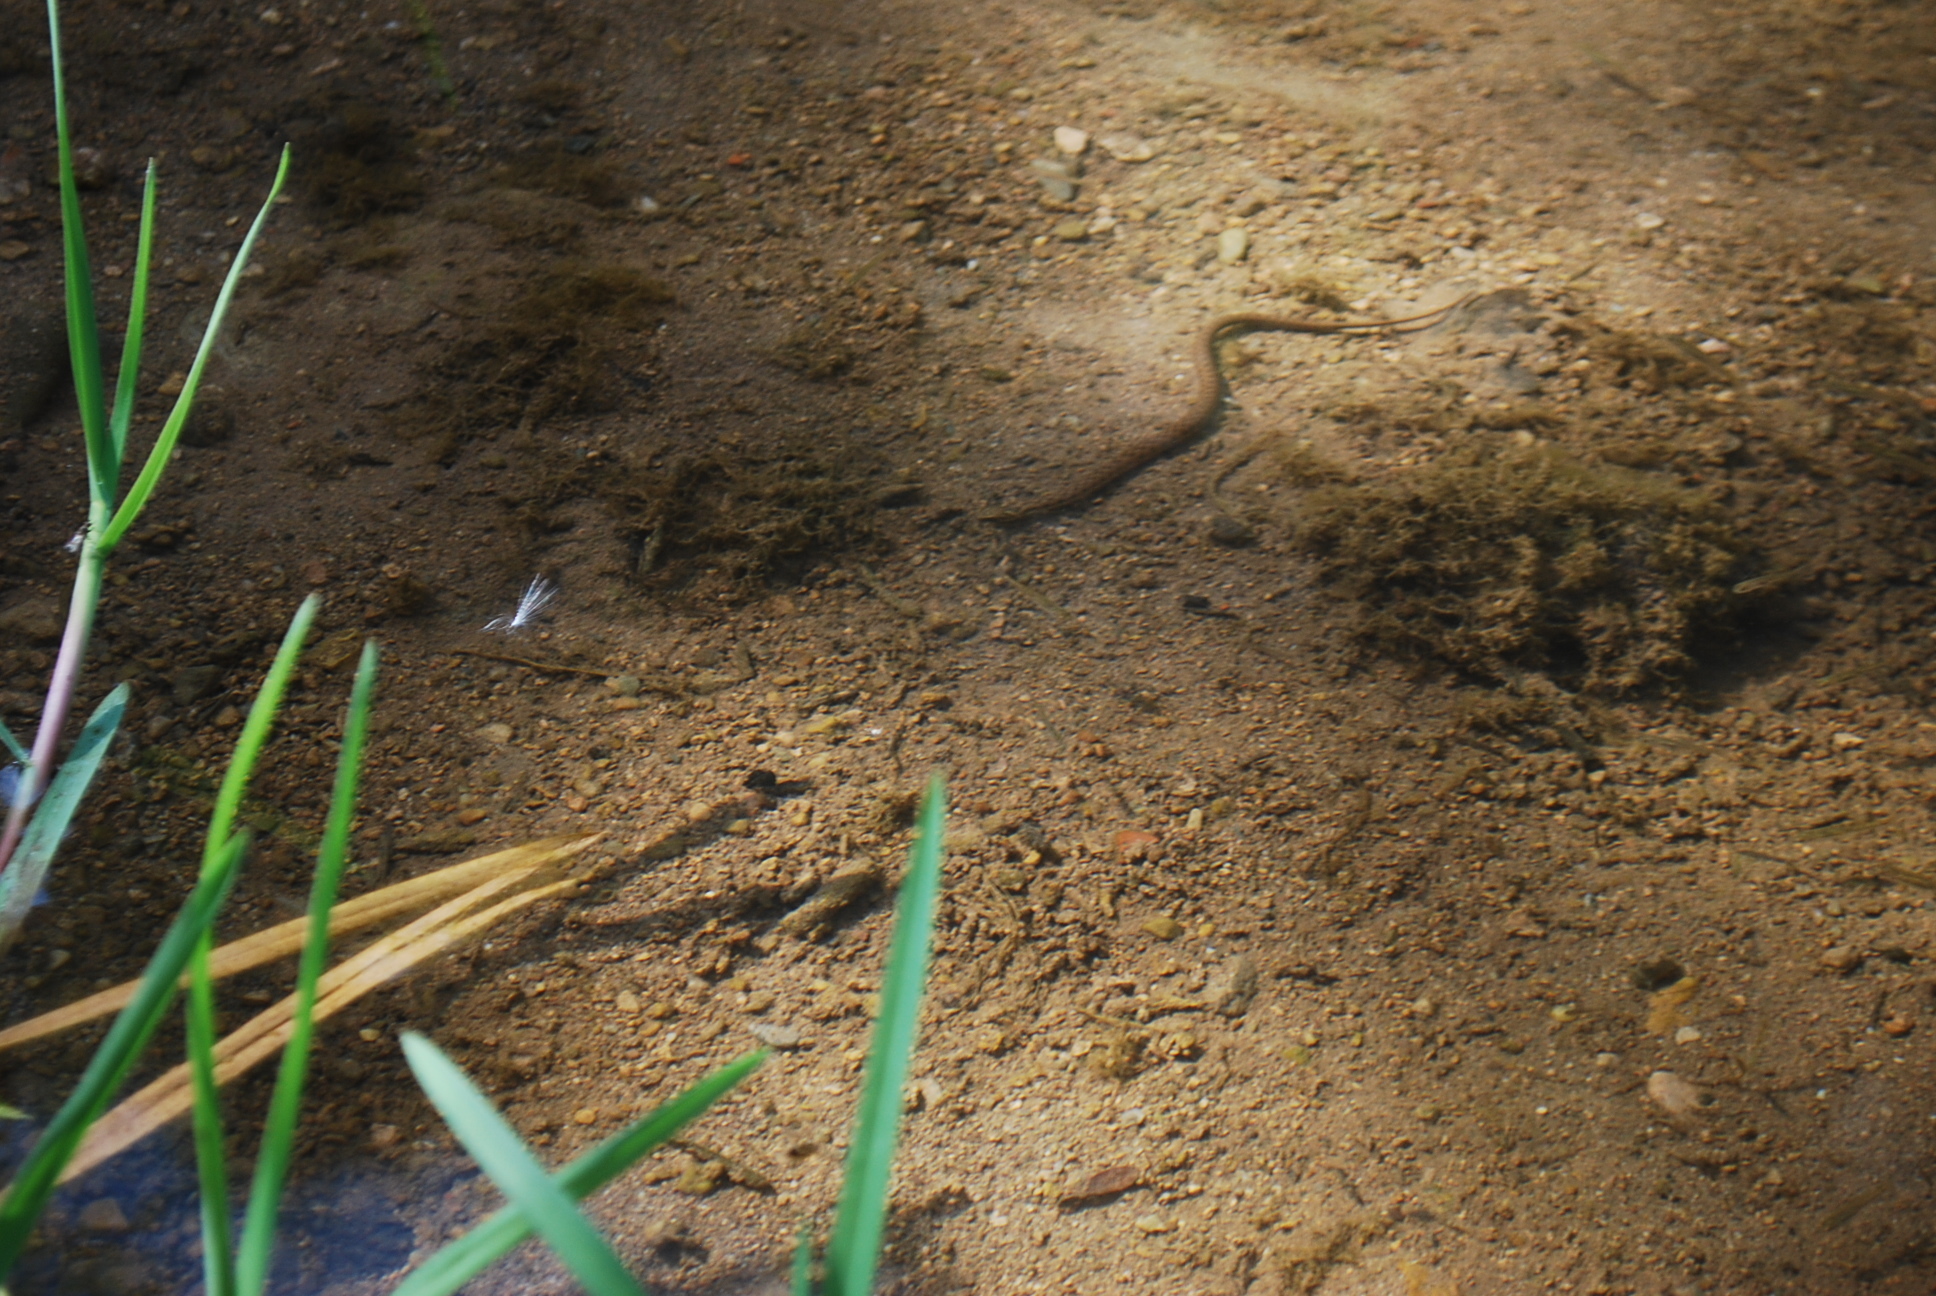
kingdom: Animalia
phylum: Chordata
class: Squamata
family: Colubridae
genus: Natrix
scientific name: Natrix maura
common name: Viperine water snake
